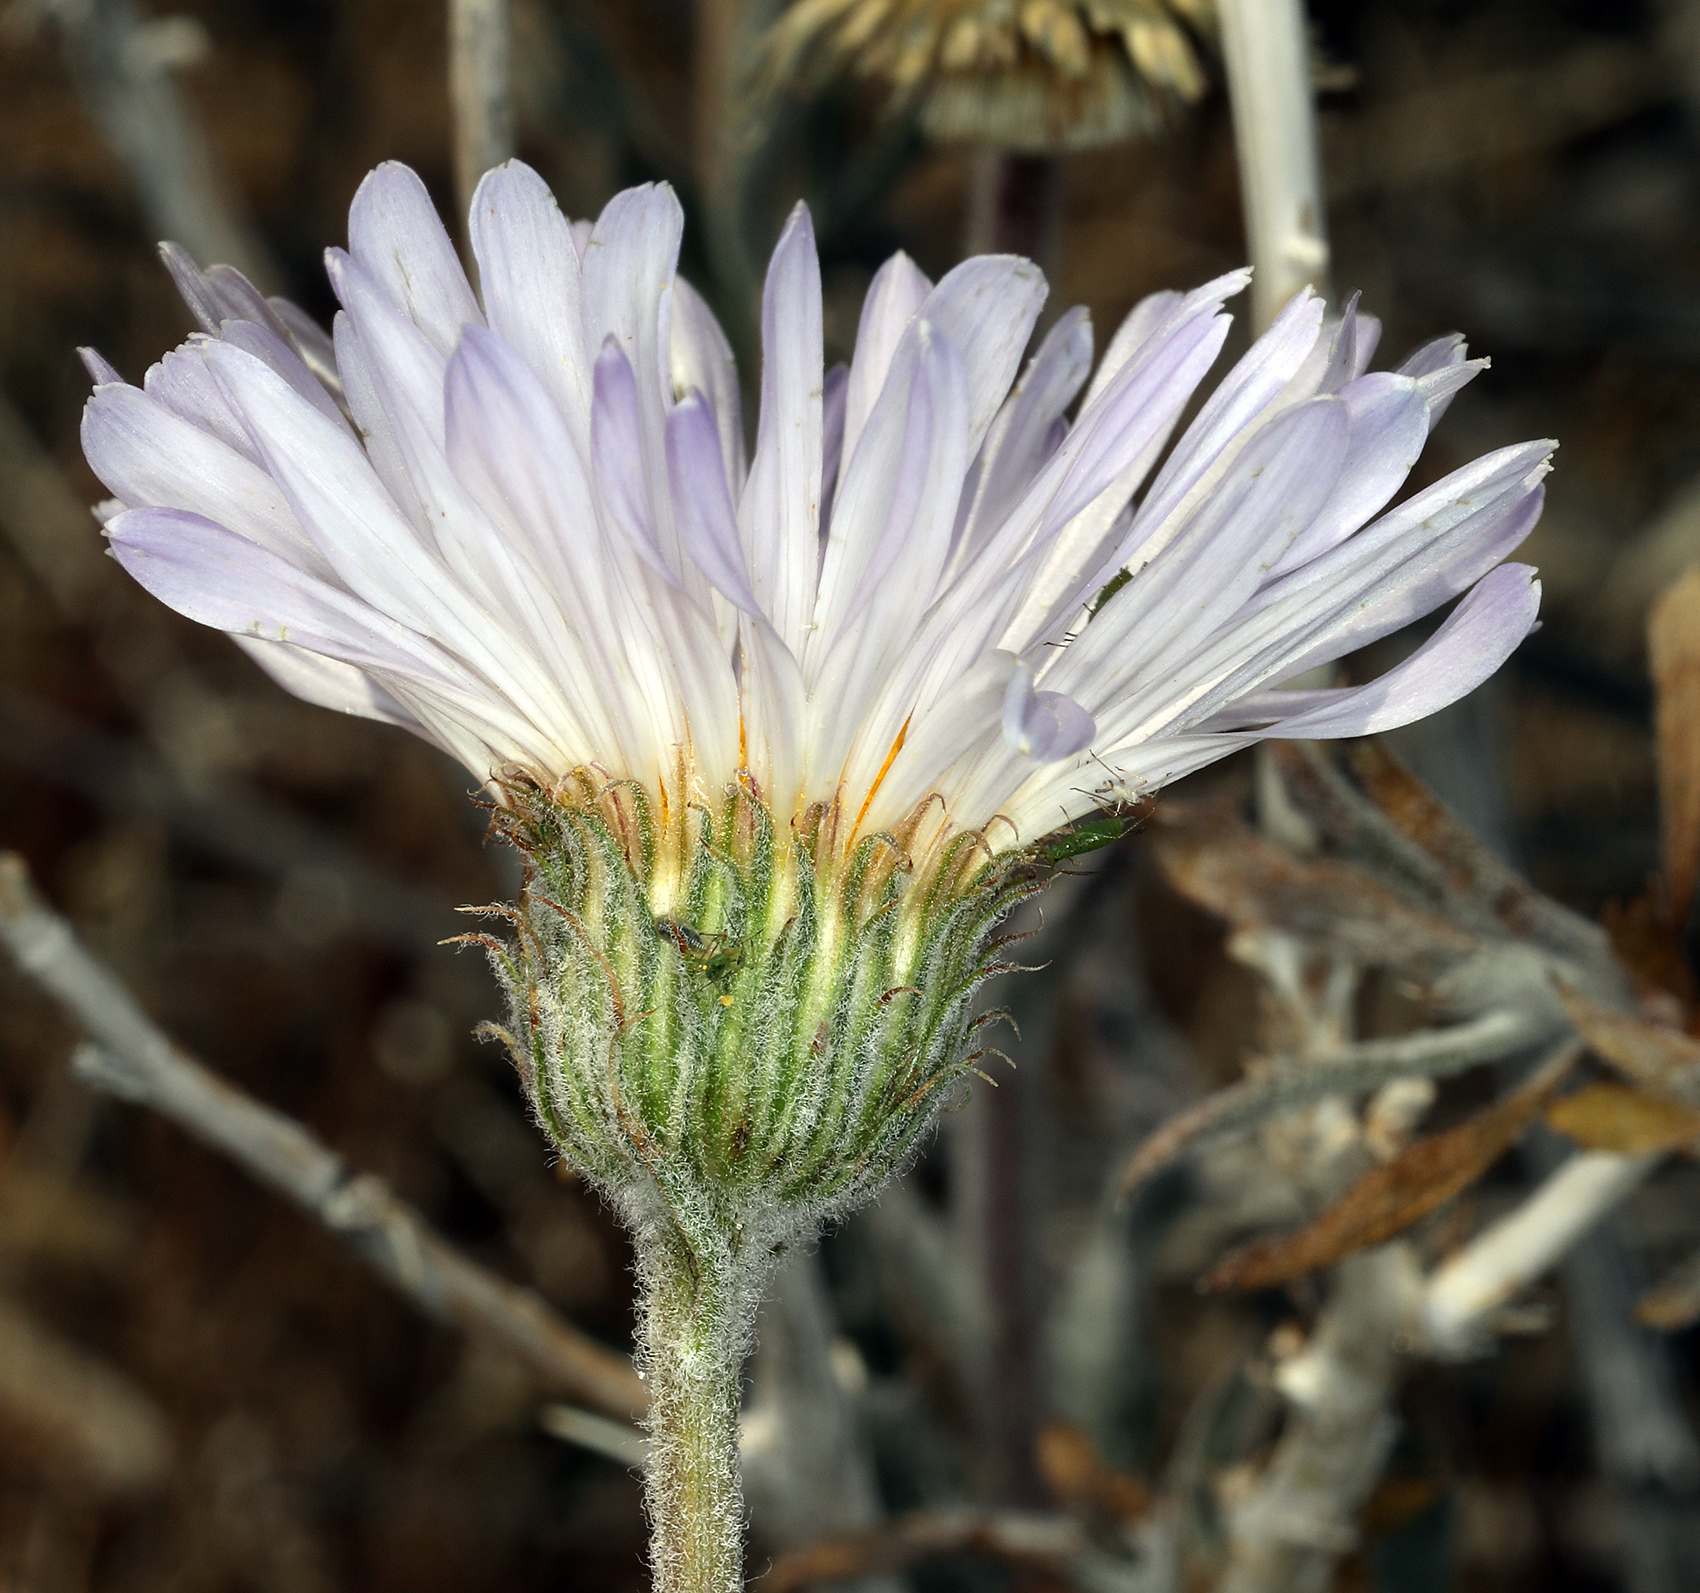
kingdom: Plantae
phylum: Tracheophyta
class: Magnoliopsida
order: Asterales
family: Asteraceae
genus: Xylorhiza
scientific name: Xylorhiza tortifolia
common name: Hurt-leaf woody-aster
